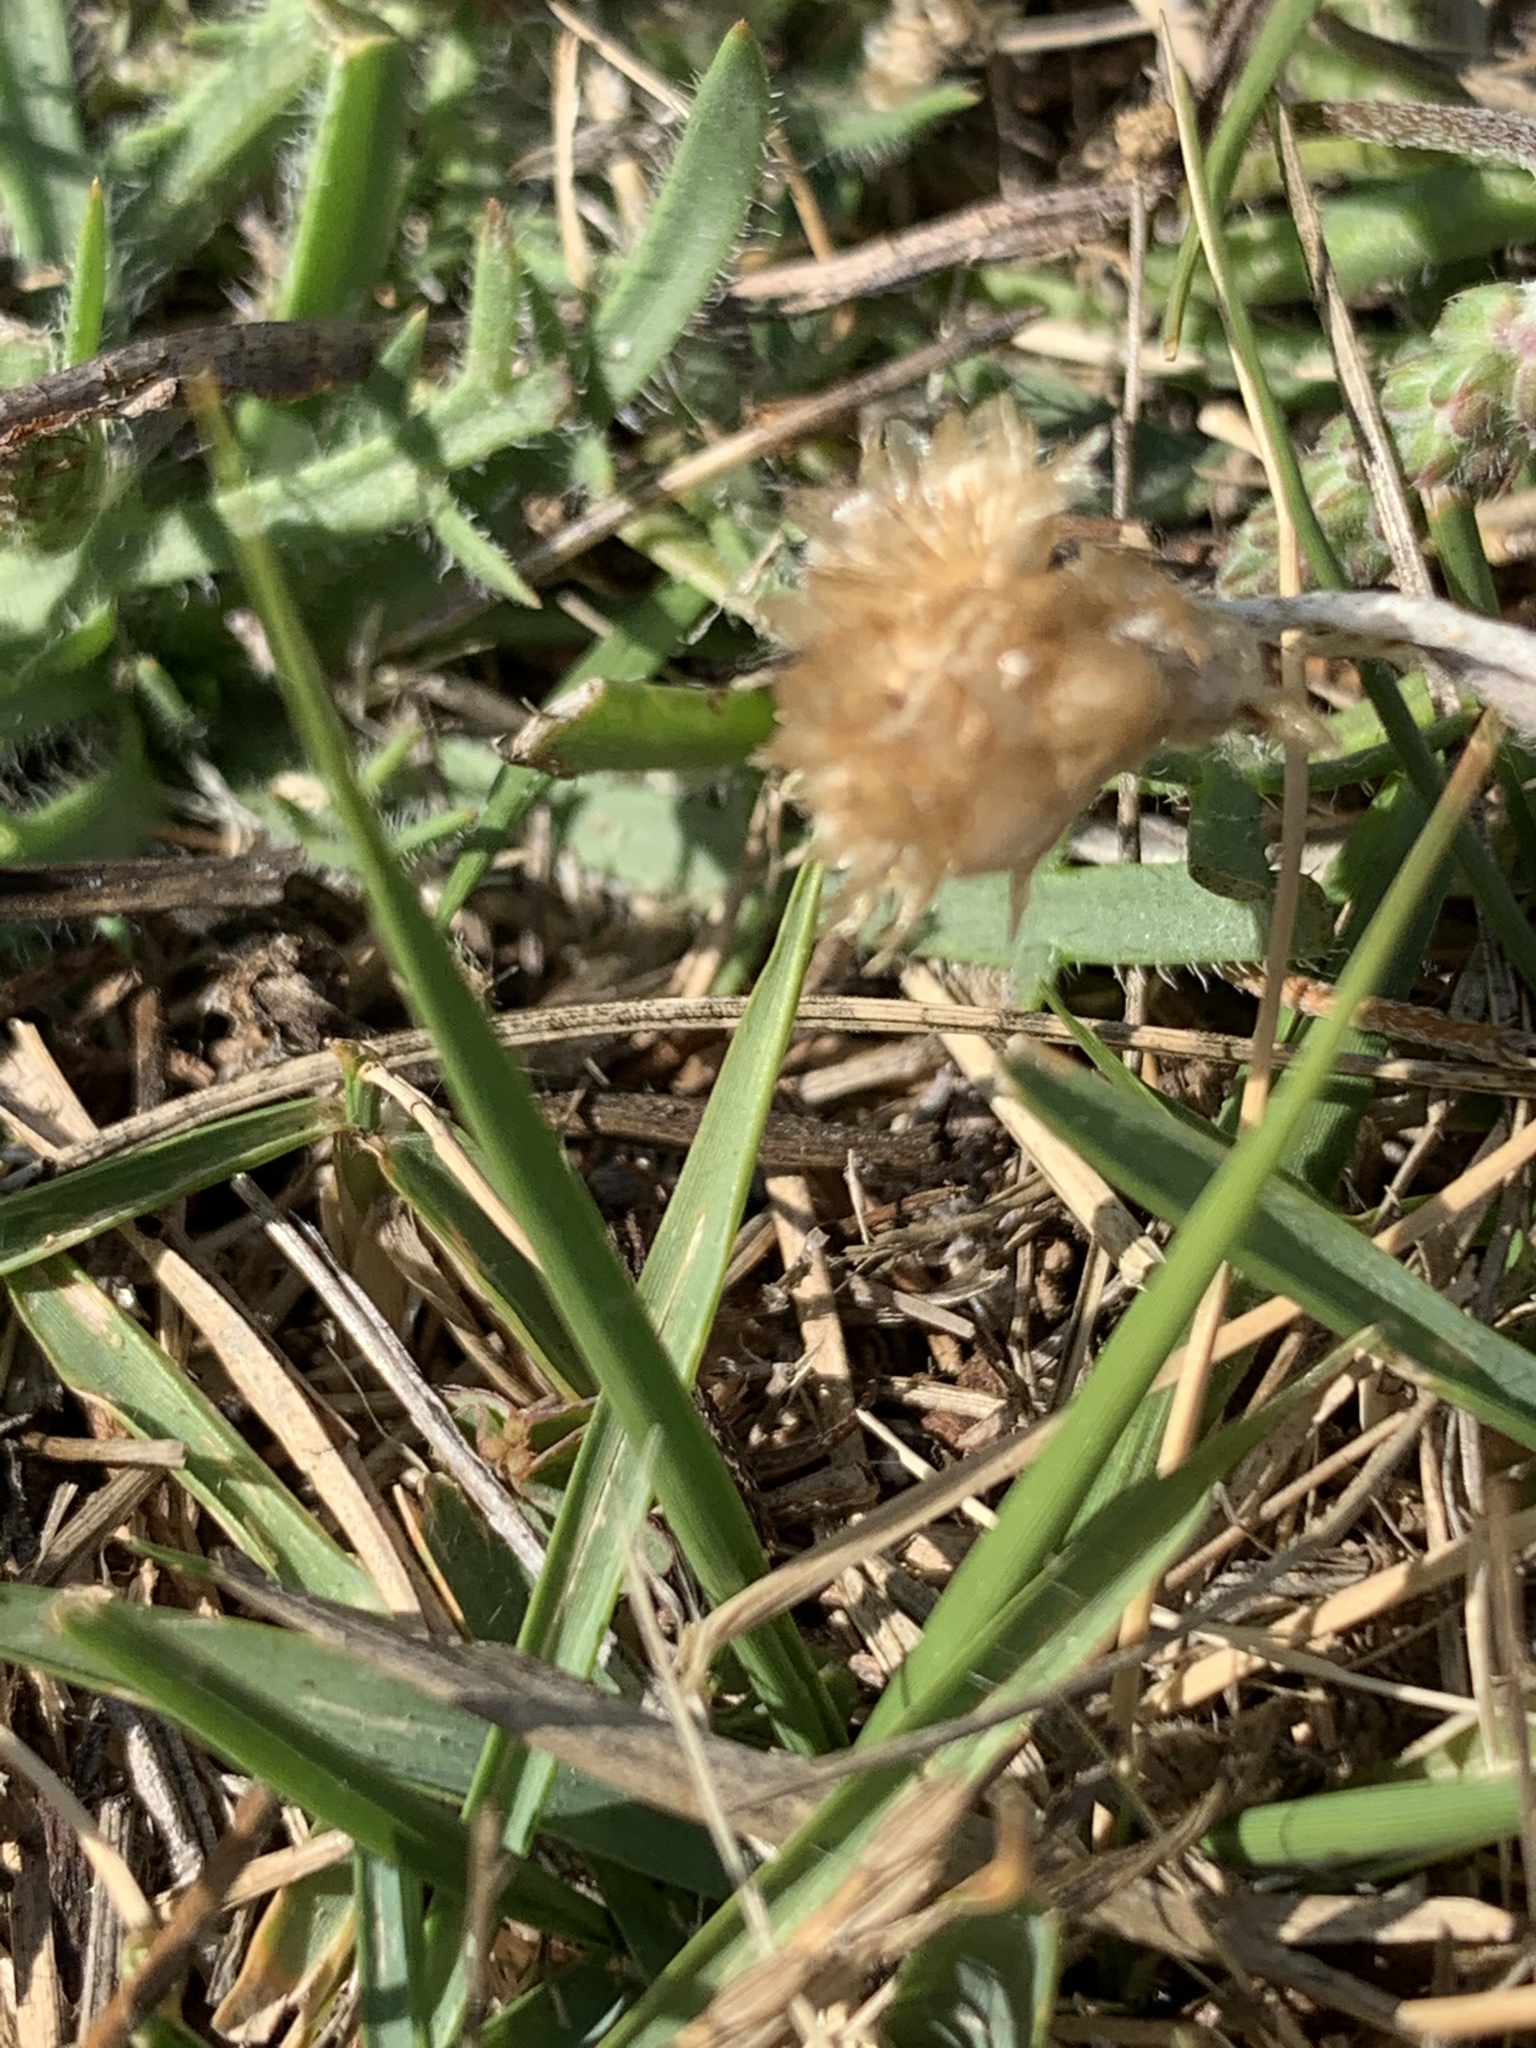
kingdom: Plantae
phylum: Tracheophyta
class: Magnoliopsida
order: Asterales
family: Asteraceae
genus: Helichrysum
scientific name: Helichrysum luteoalbum
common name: Daisy
